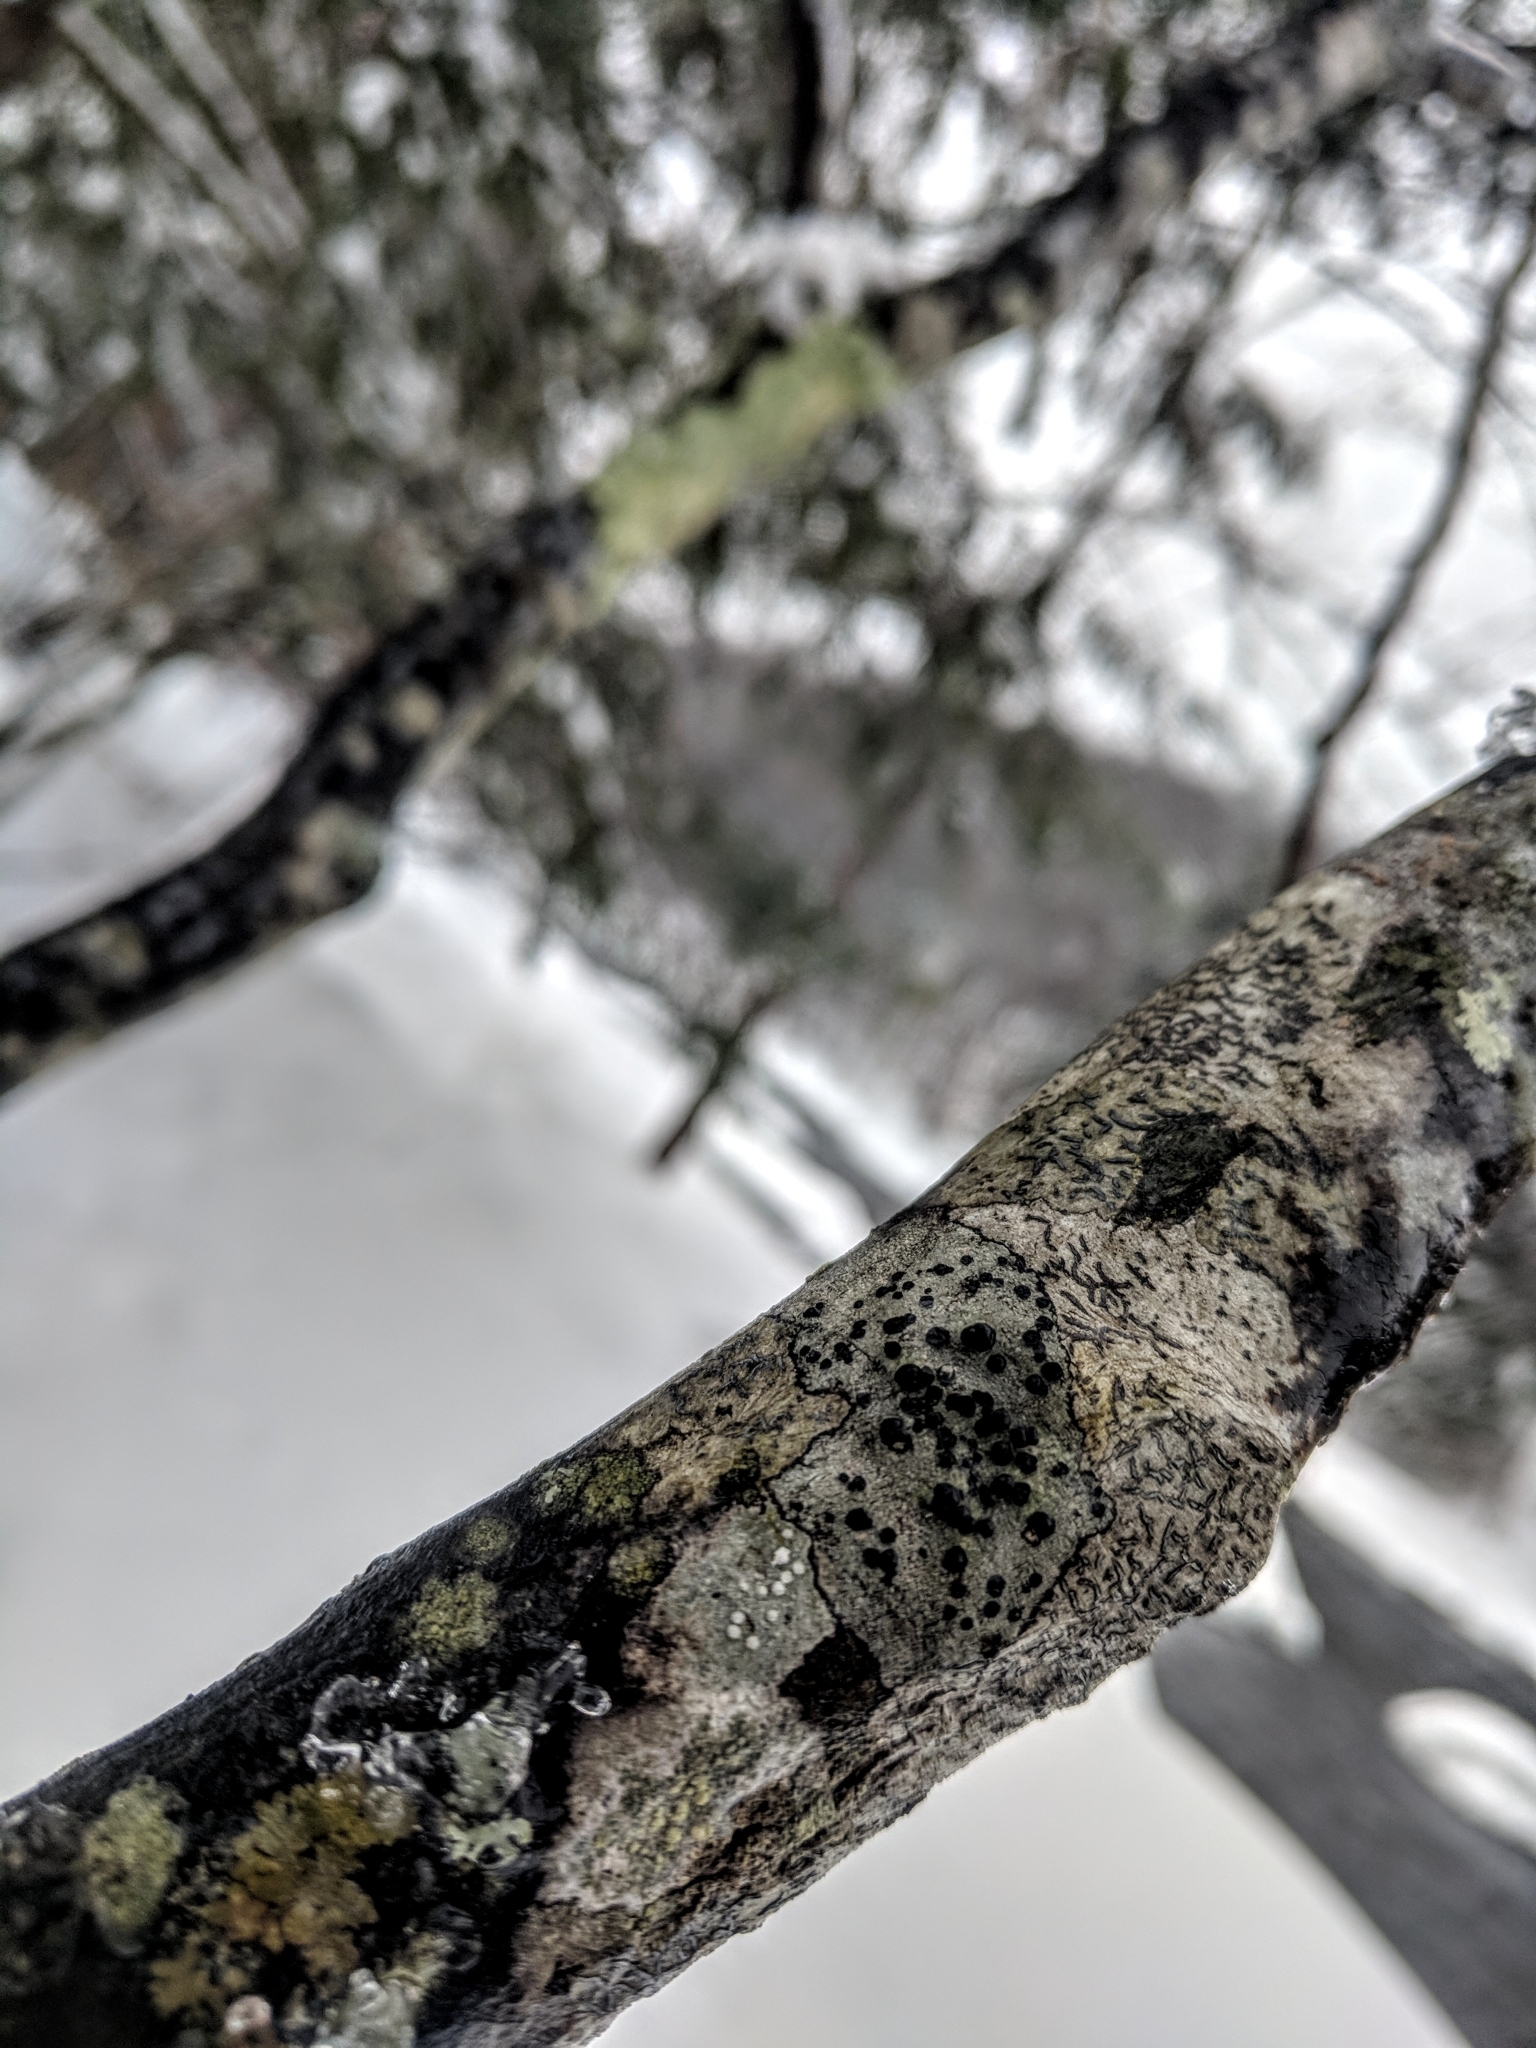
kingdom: Fungi
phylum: Ascomycota
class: Lecanoromycetes
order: Lecideales
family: Lecideaceae
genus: Porpidia
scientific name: Porpidia crustulata
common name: Concentric boulder lichen
